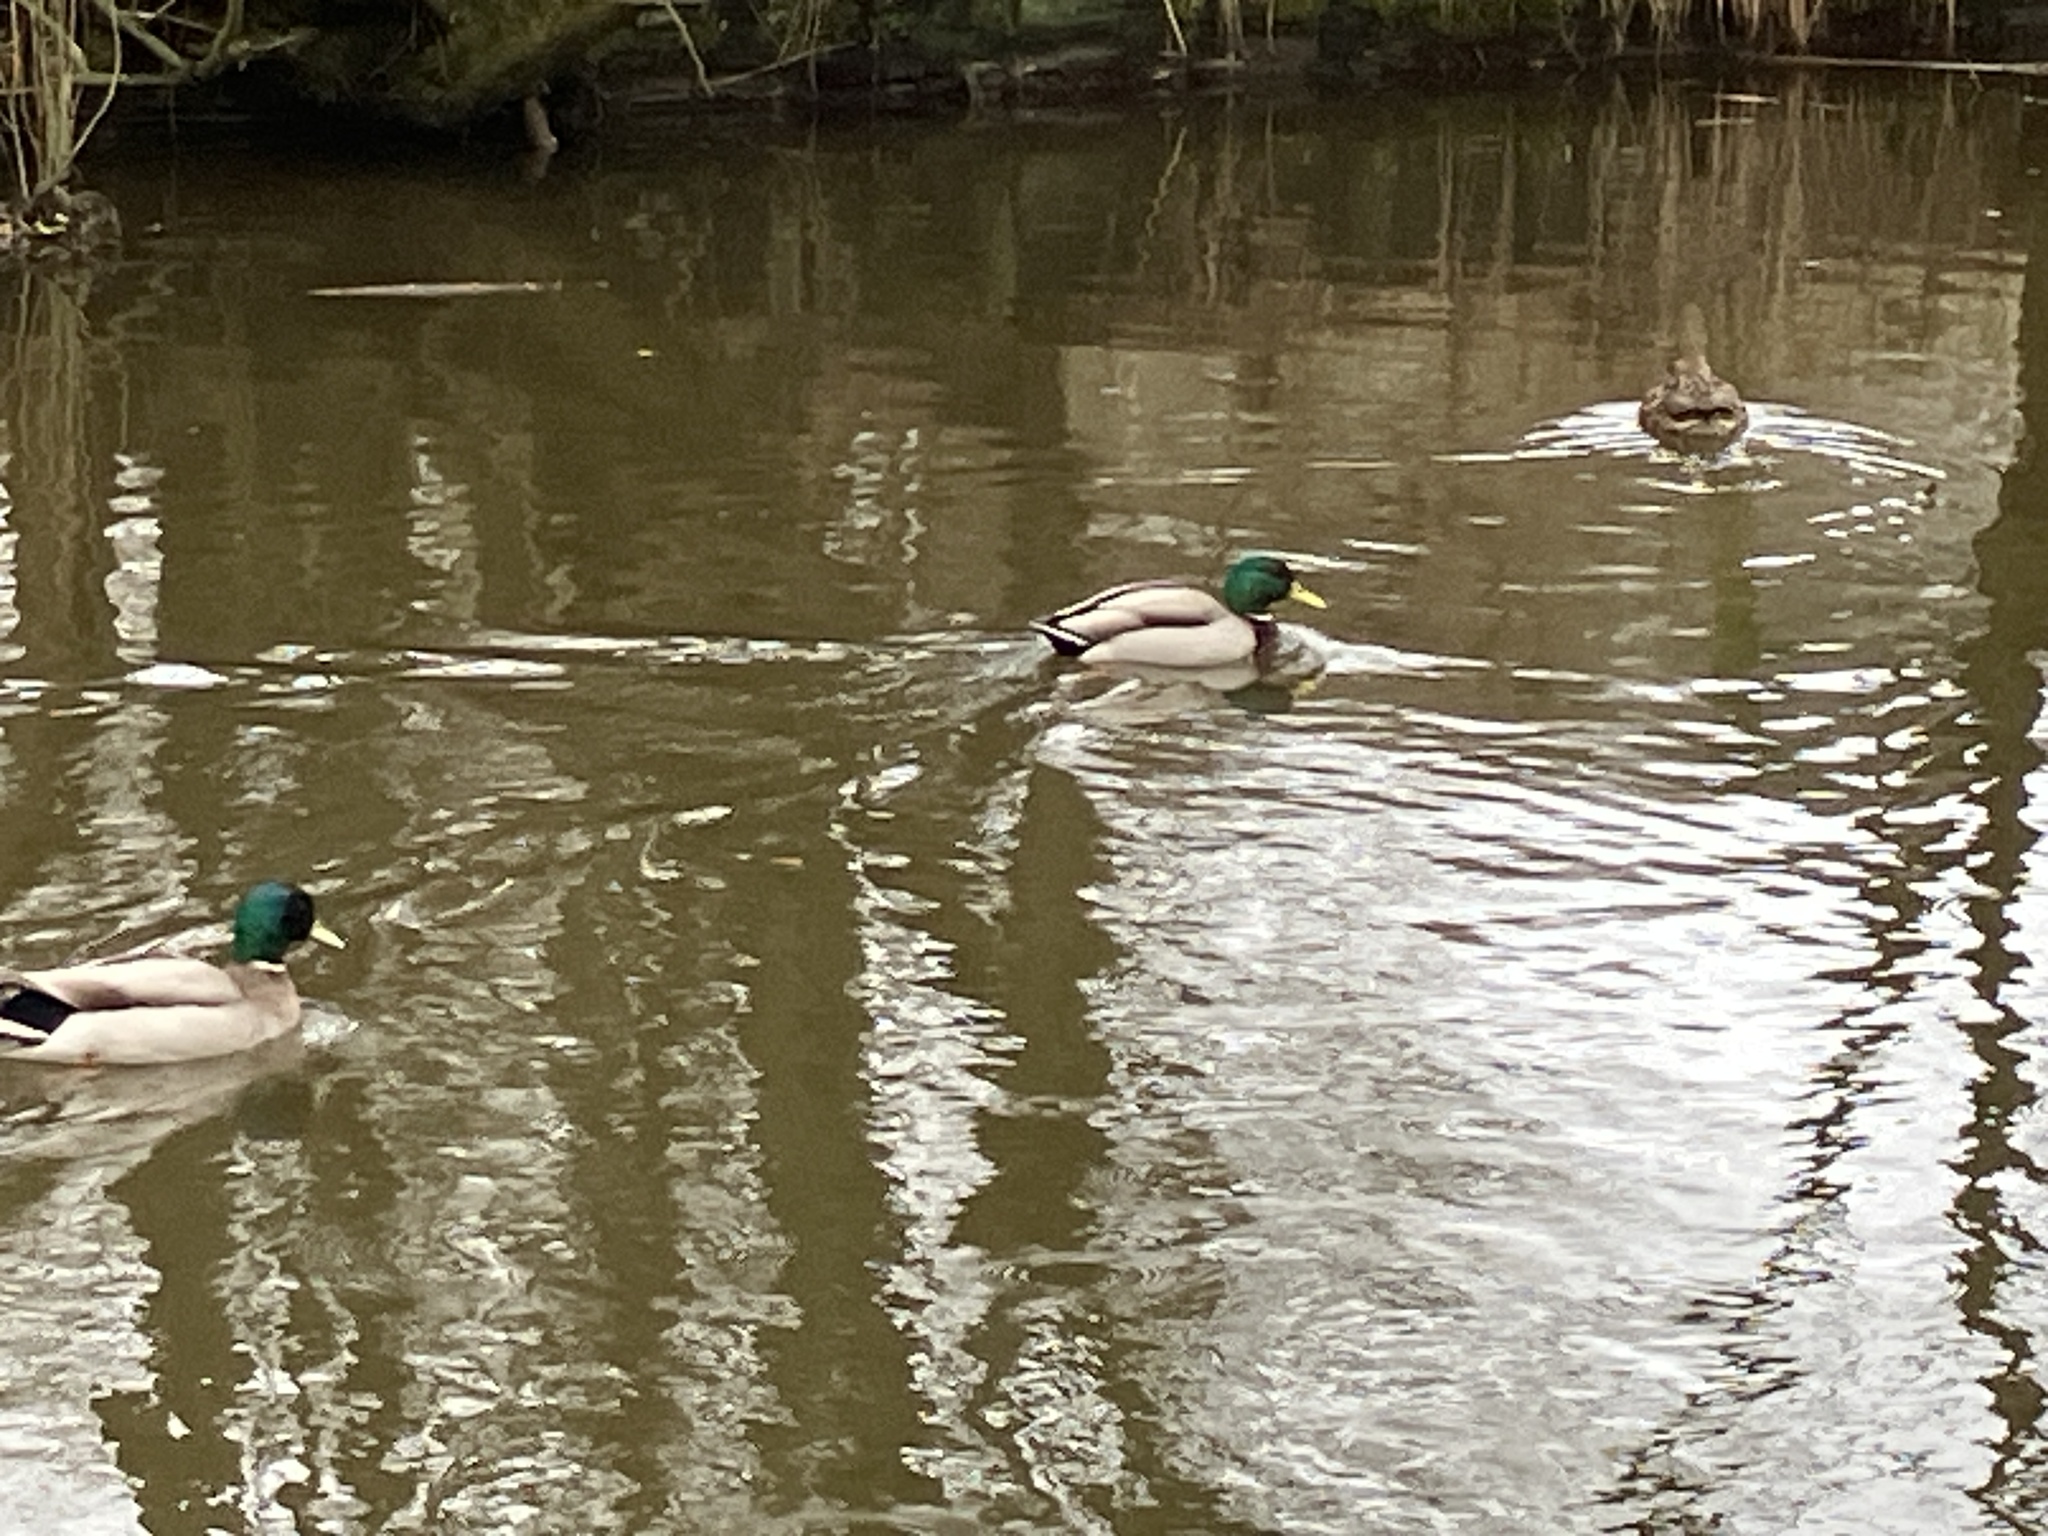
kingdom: Animalia
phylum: Chordata
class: Aves
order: Anseriformes
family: Anatidae
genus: Anas
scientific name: Anas platyrhynchos
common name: Mallard
